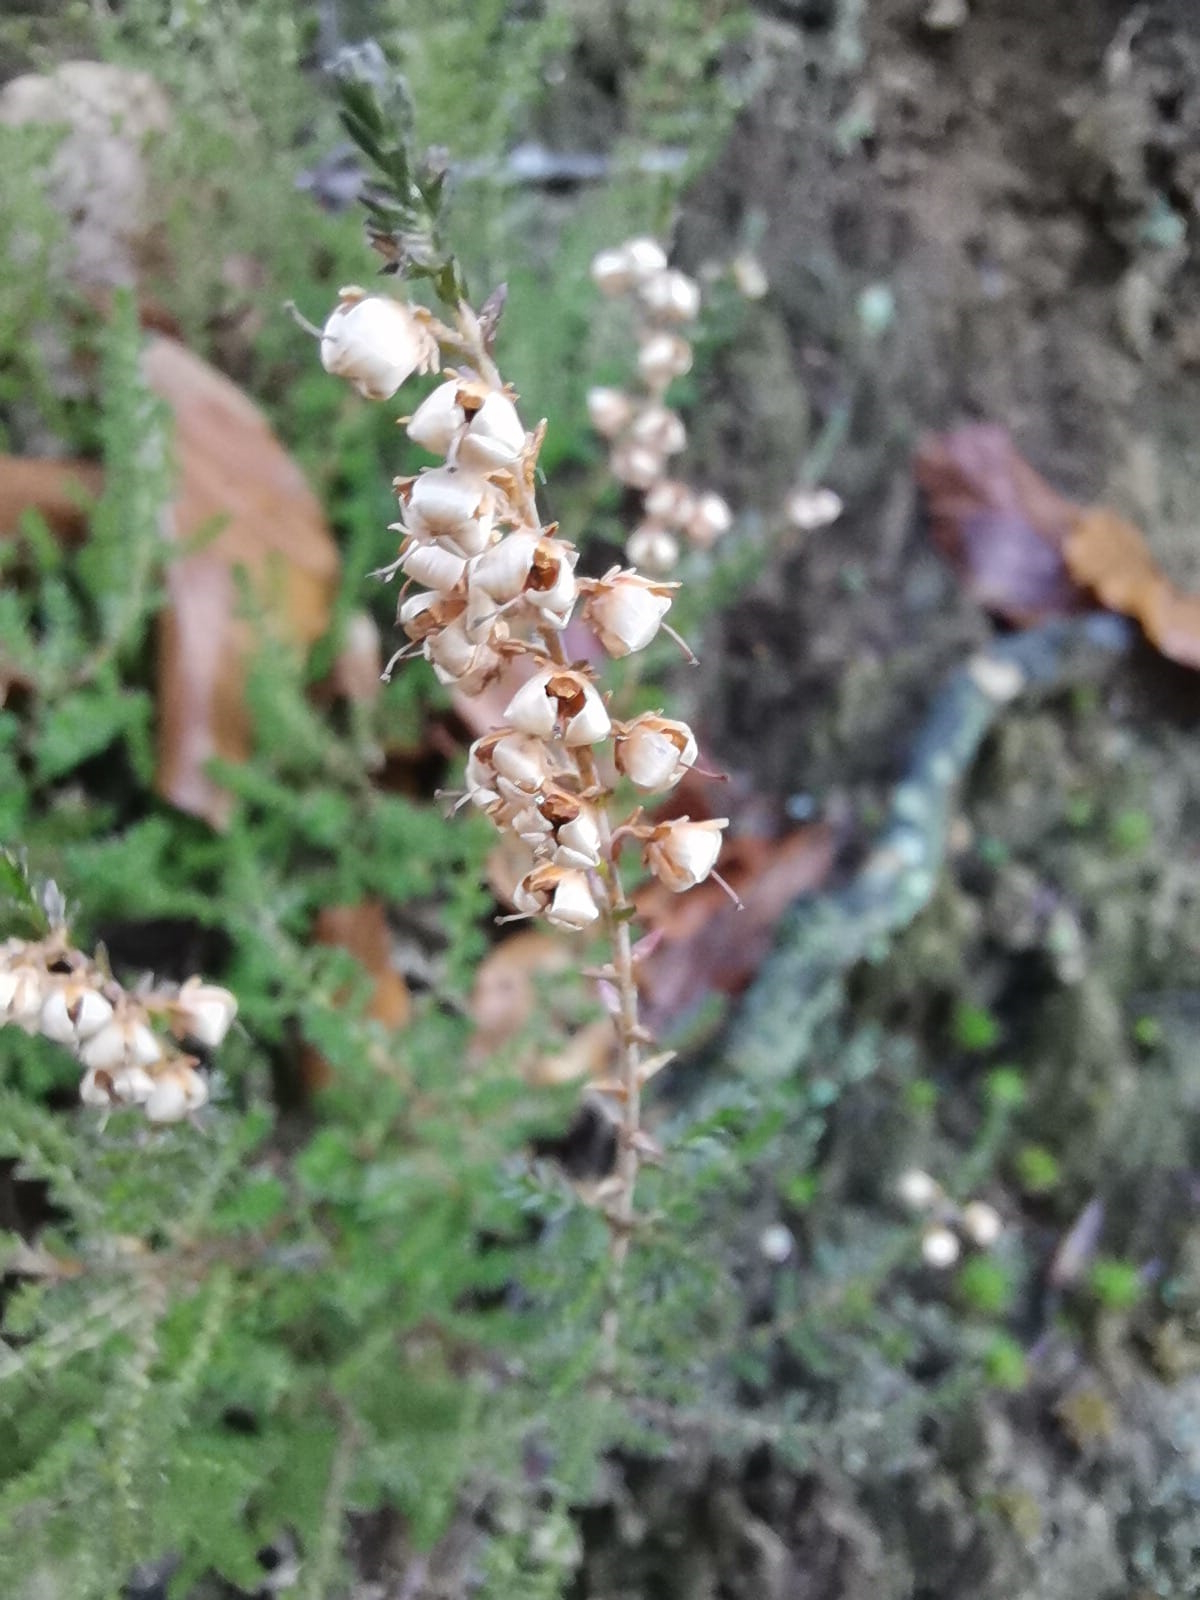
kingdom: Plantae
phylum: Tracheophyta
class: Magnoliopsida
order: Ericales
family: Ericaceae
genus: Calluna
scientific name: Calluna vulgaris
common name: Heather
